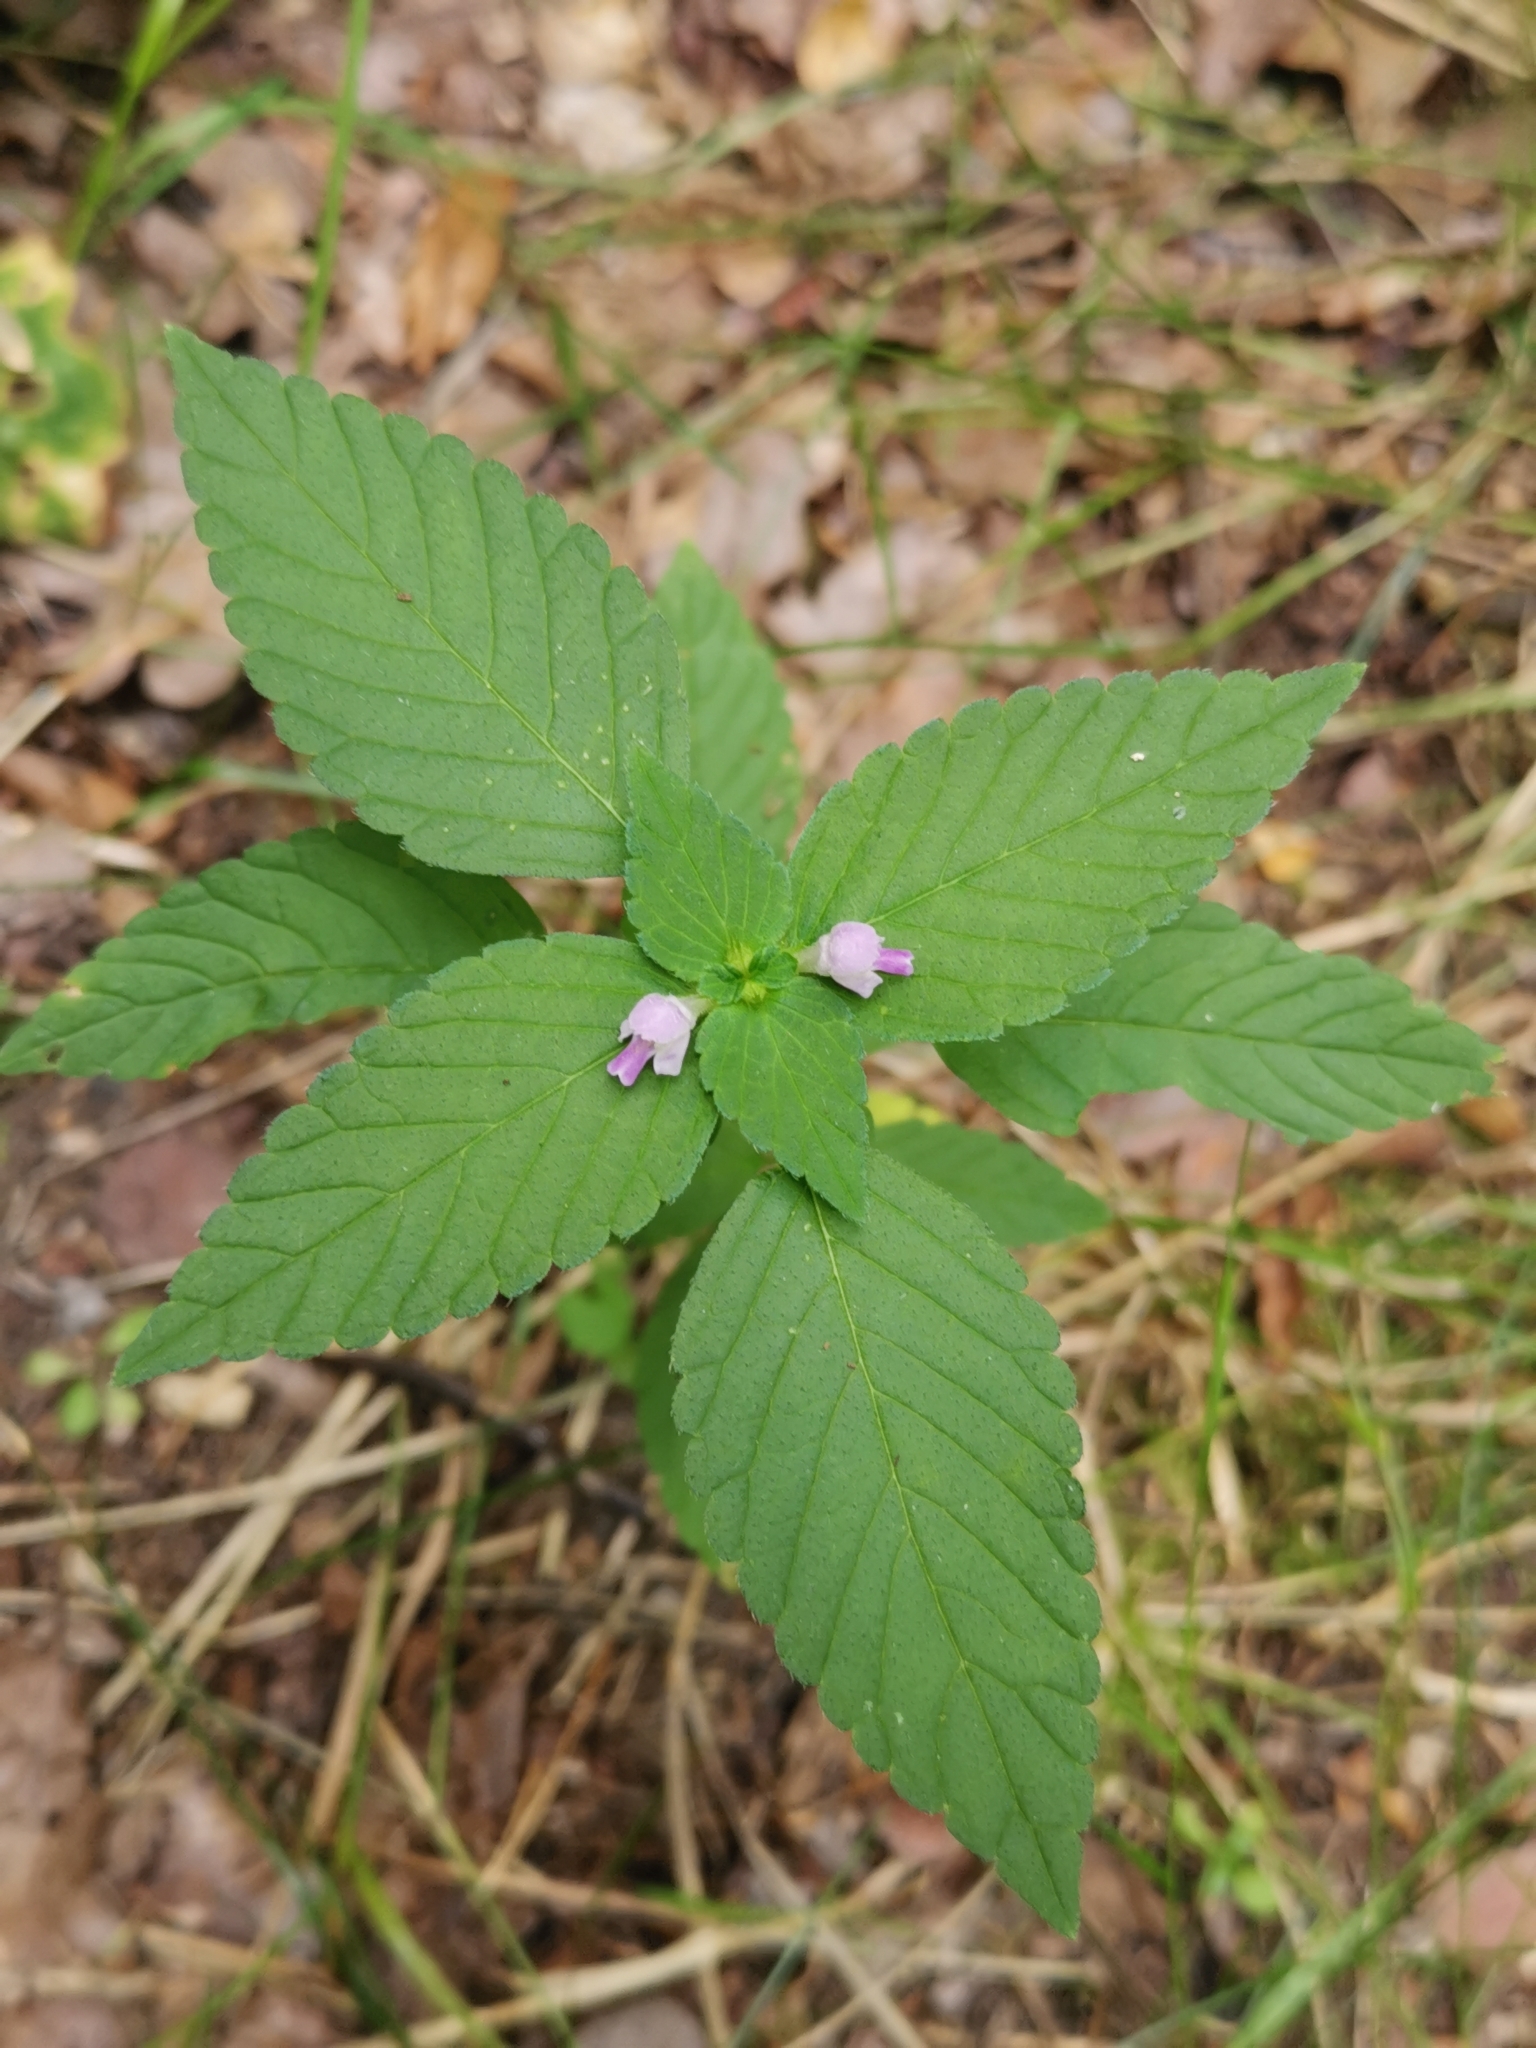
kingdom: Plantae
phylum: Tracheophyta
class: Magnoliopsida
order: Lamiales
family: Lamiaceae
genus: Galeopsis
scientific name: Galeopsis tetrahit
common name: Common hemp-nettle
